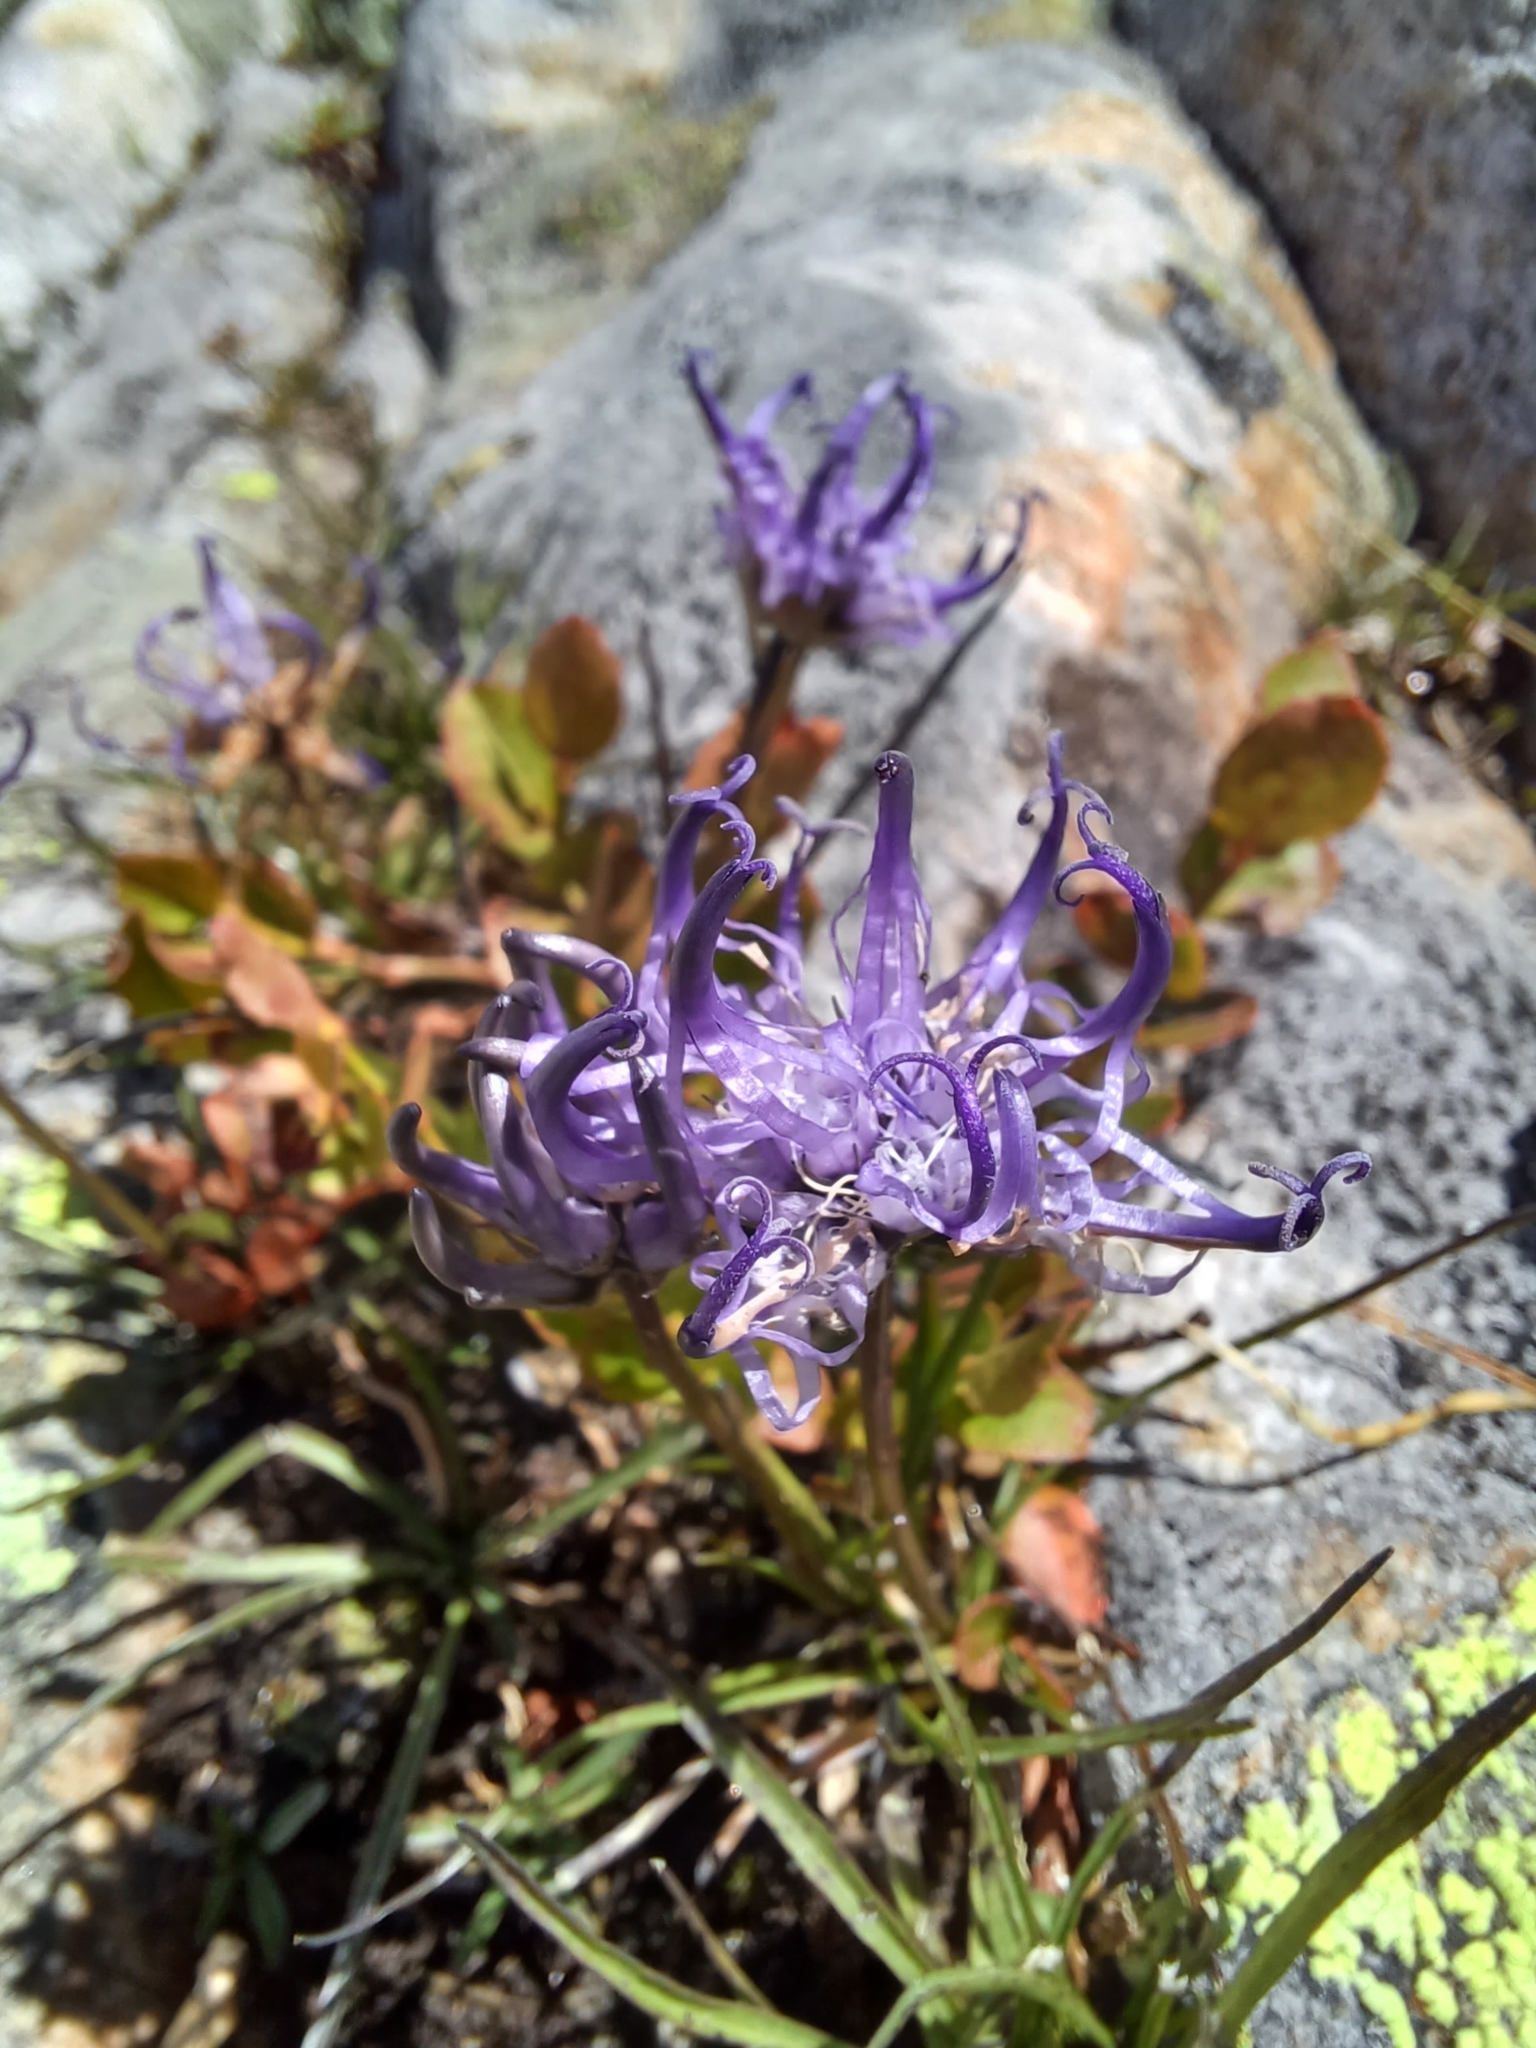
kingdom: Plantae
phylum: Tracheophyta
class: Magnoliopsida
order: Asterales
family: Campanulaceae
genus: Phyteuma
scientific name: Phyteuma hemisphaericum
